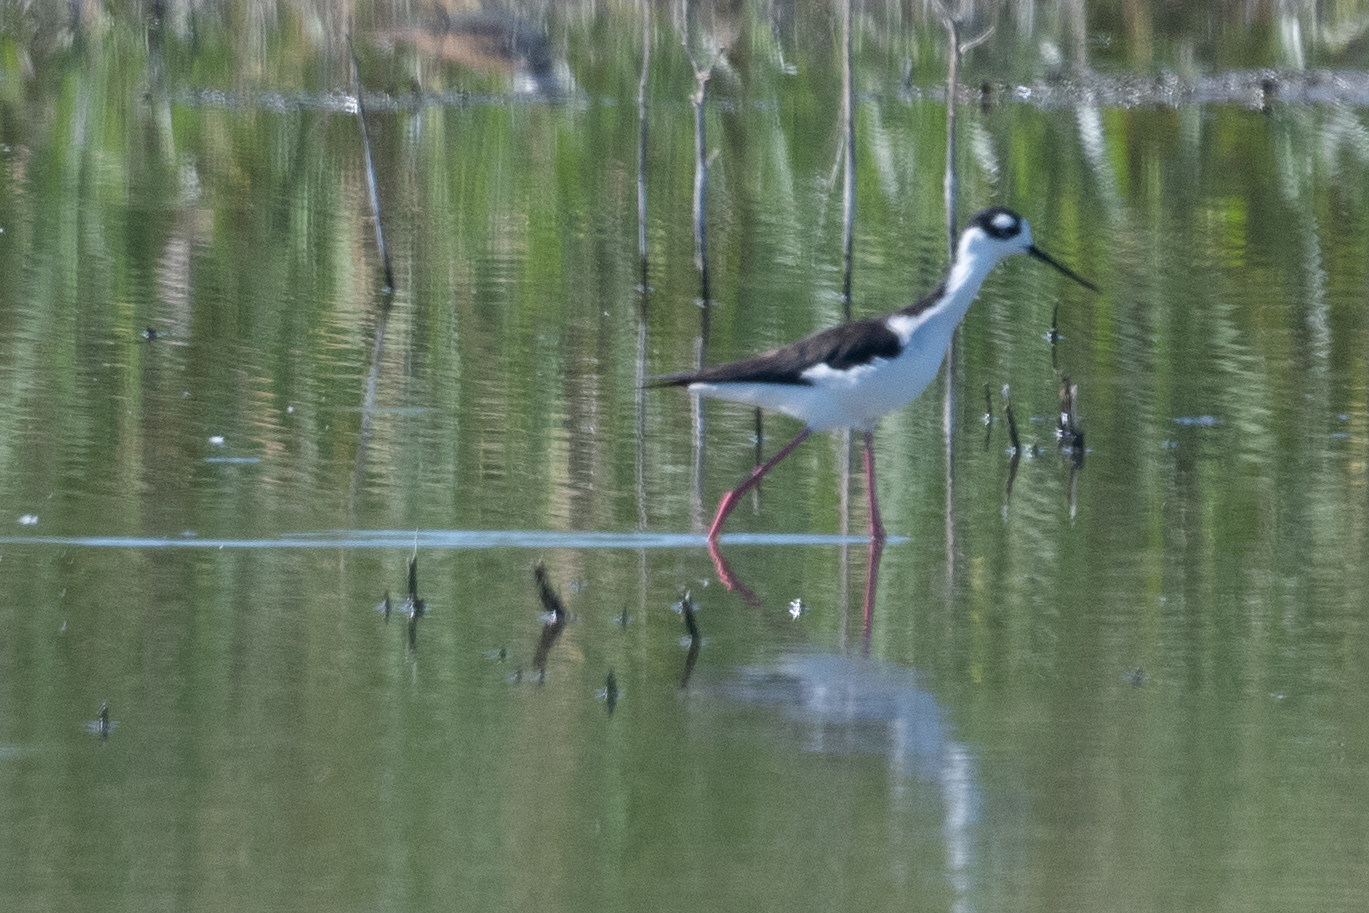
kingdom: Animalia
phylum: Chordata
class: Aves
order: Charadriiformes
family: Recurvirostridae
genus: Himantopus
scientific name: Himantopus mexicanus
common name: Black-necked stilt
